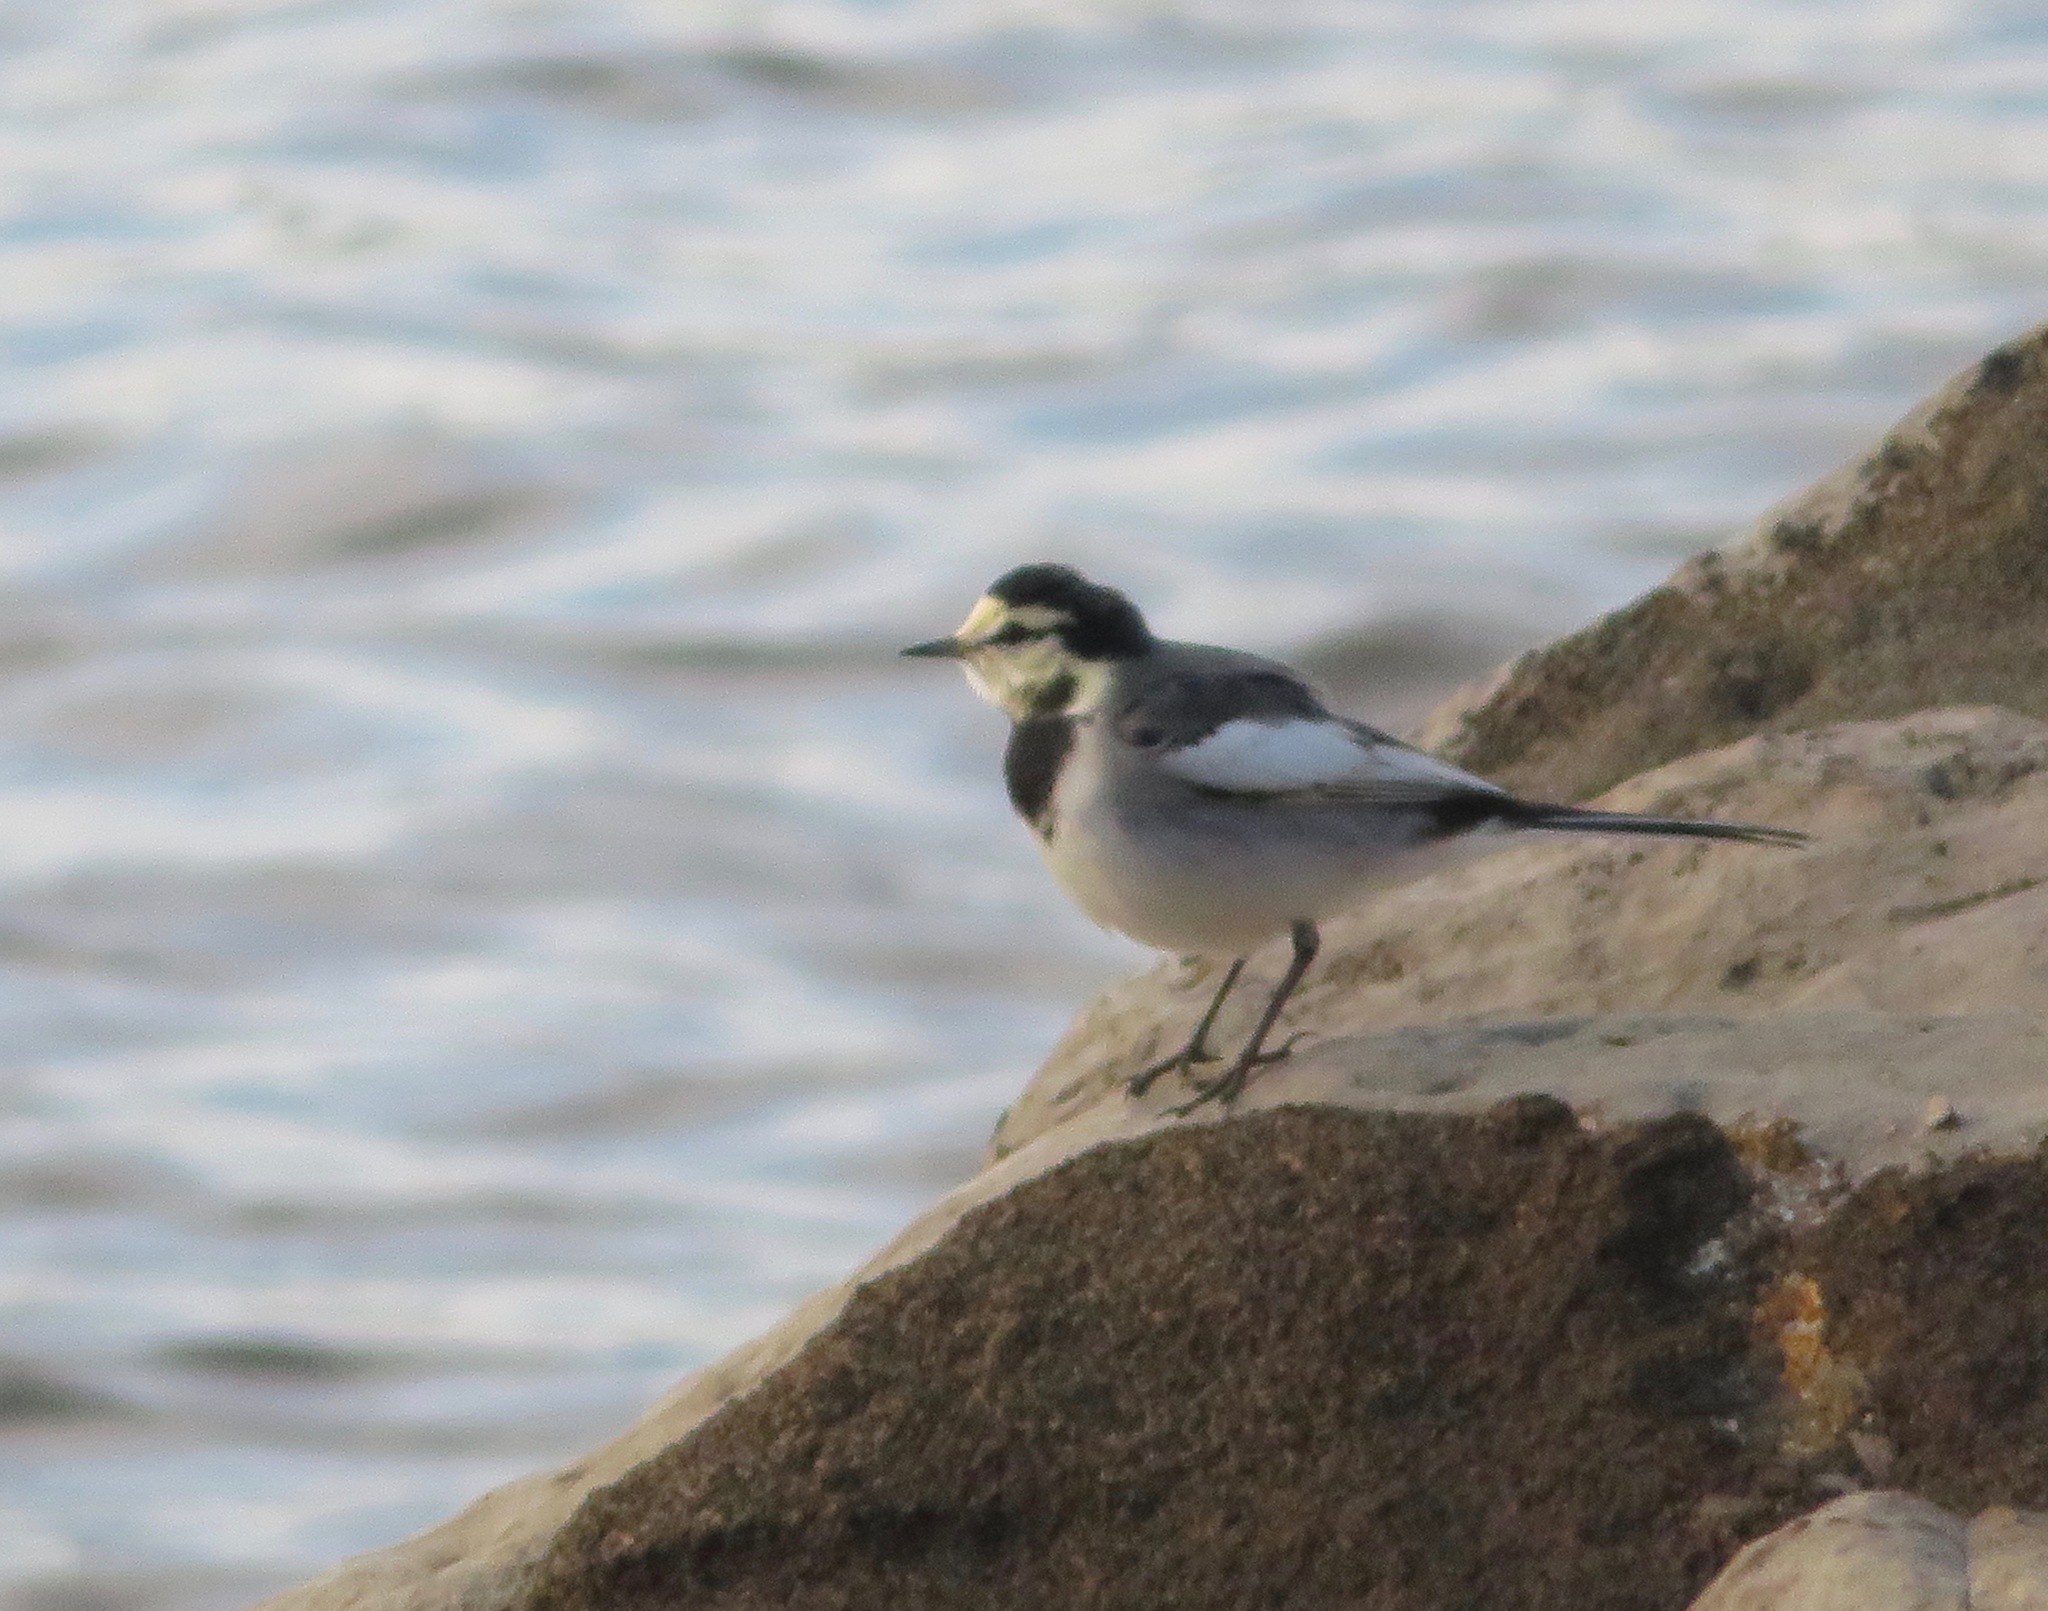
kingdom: Animalia
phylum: Chordata
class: Aves
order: Passeriformes
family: Motacillidae
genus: Motacilla
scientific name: Motacilla alba
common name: White wagtail
